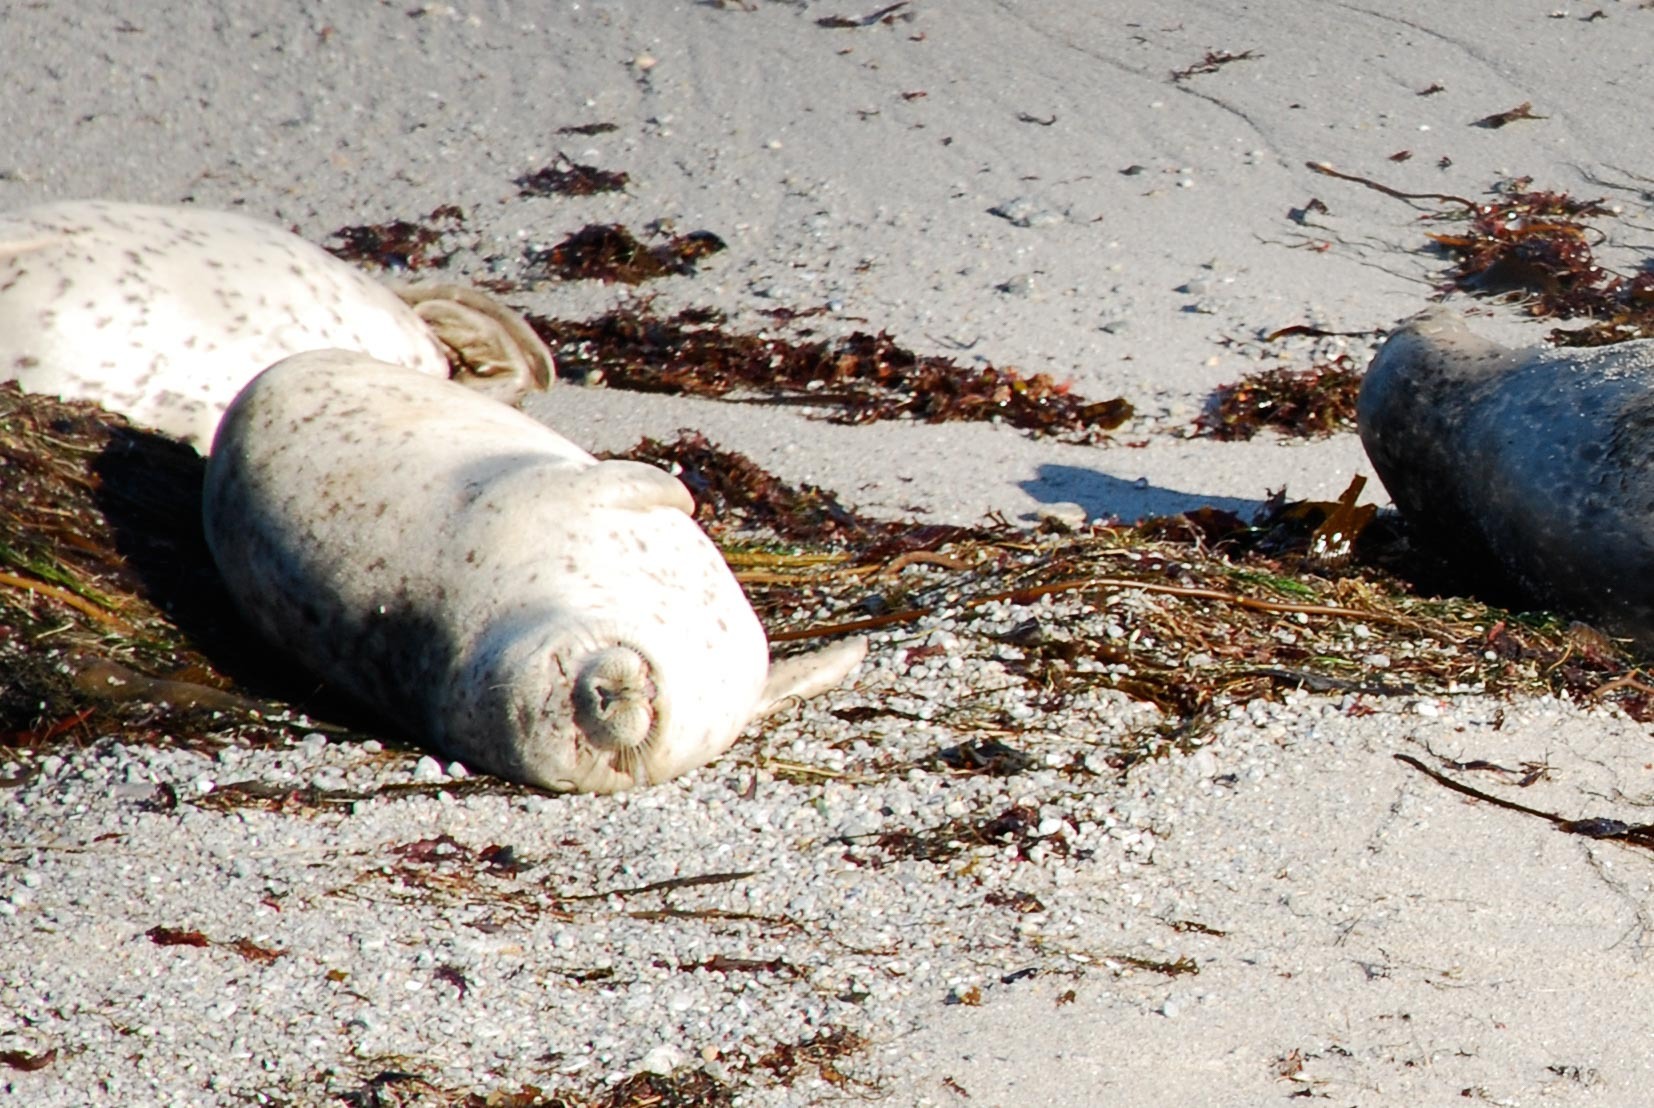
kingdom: Animalia
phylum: Chordata
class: Mammalia
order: Carnivora
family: Phocidae
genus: Phoca
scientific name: Phoca vitulina
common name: Harbor seal
